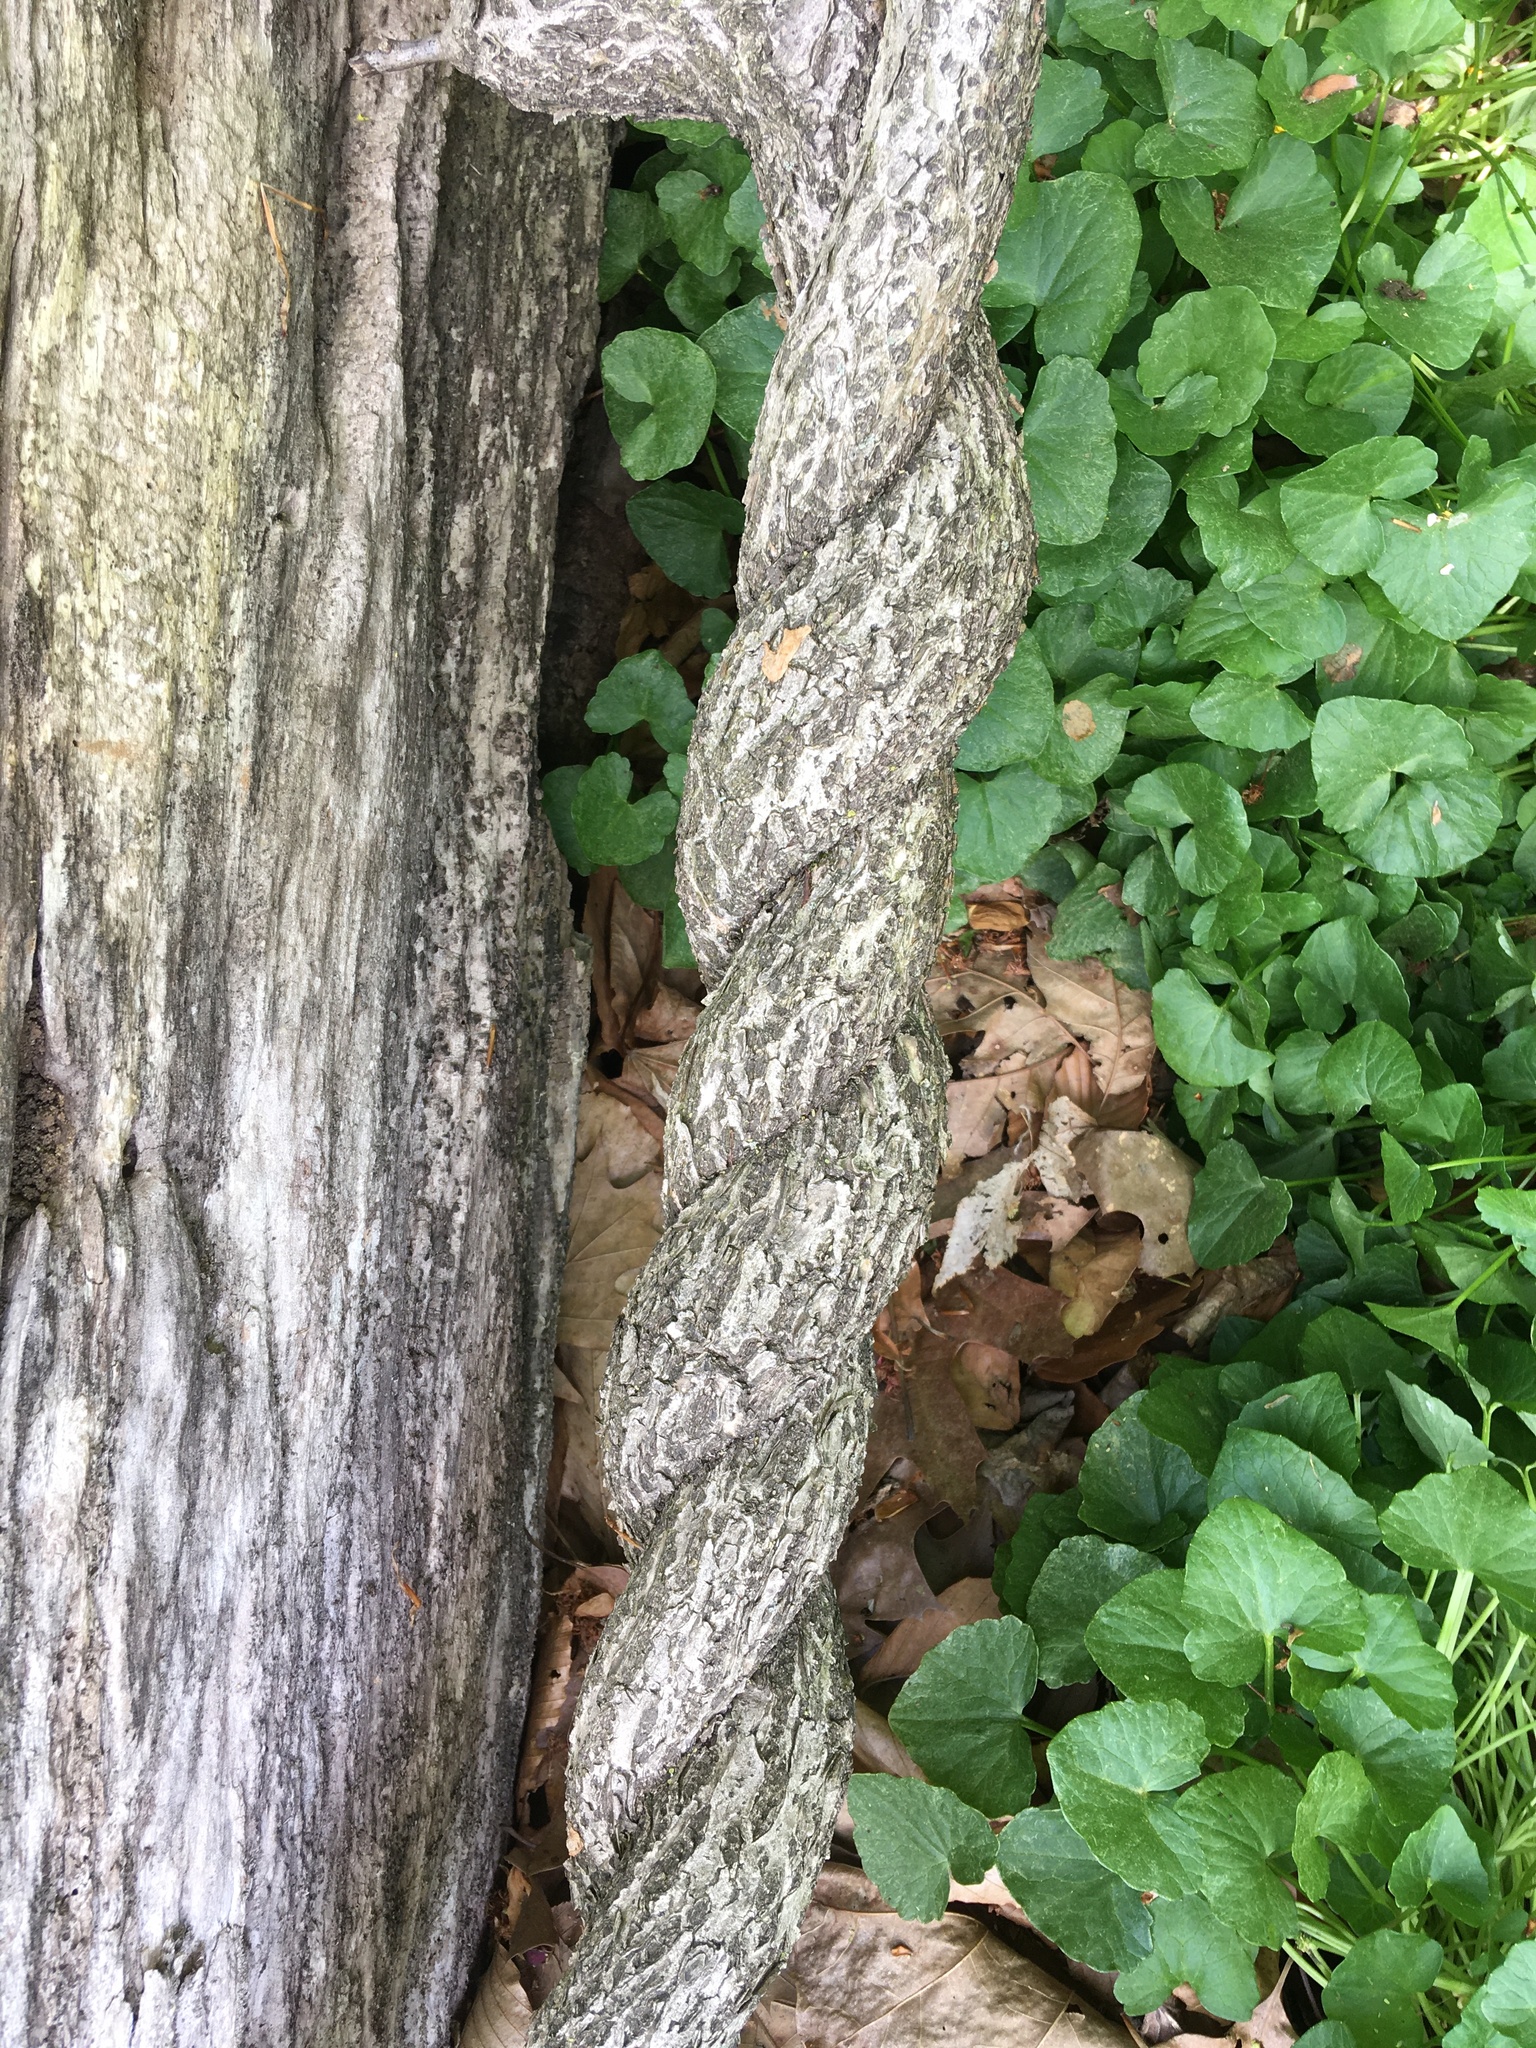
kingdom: Plantae
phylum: Tracheophyta
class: Magnoliopsida
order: Celastrales
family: Celastraceae
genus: Celastrus
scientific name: Celastrus orbiculatus
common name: Oriental bittersweet
